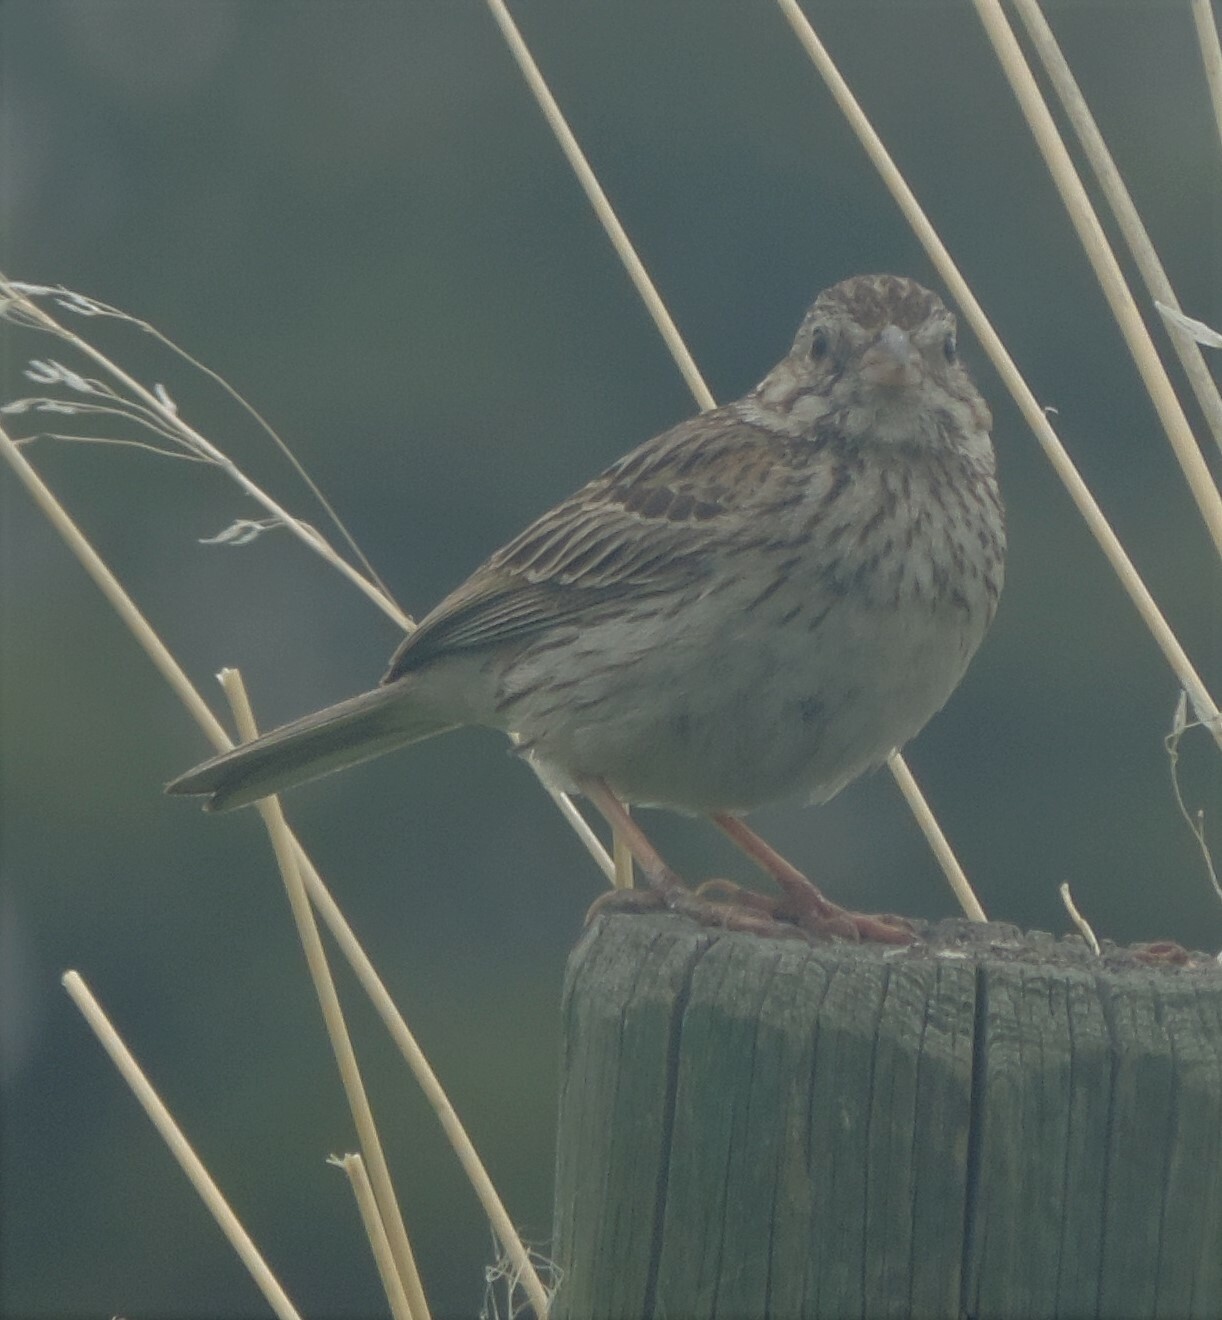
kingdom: Animalia
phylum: Chordata
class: Aves
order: Passeriformes
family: Passerellidae
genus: Pooecetes
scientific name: Pooecetes gramineus
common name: Vesper sparrow
